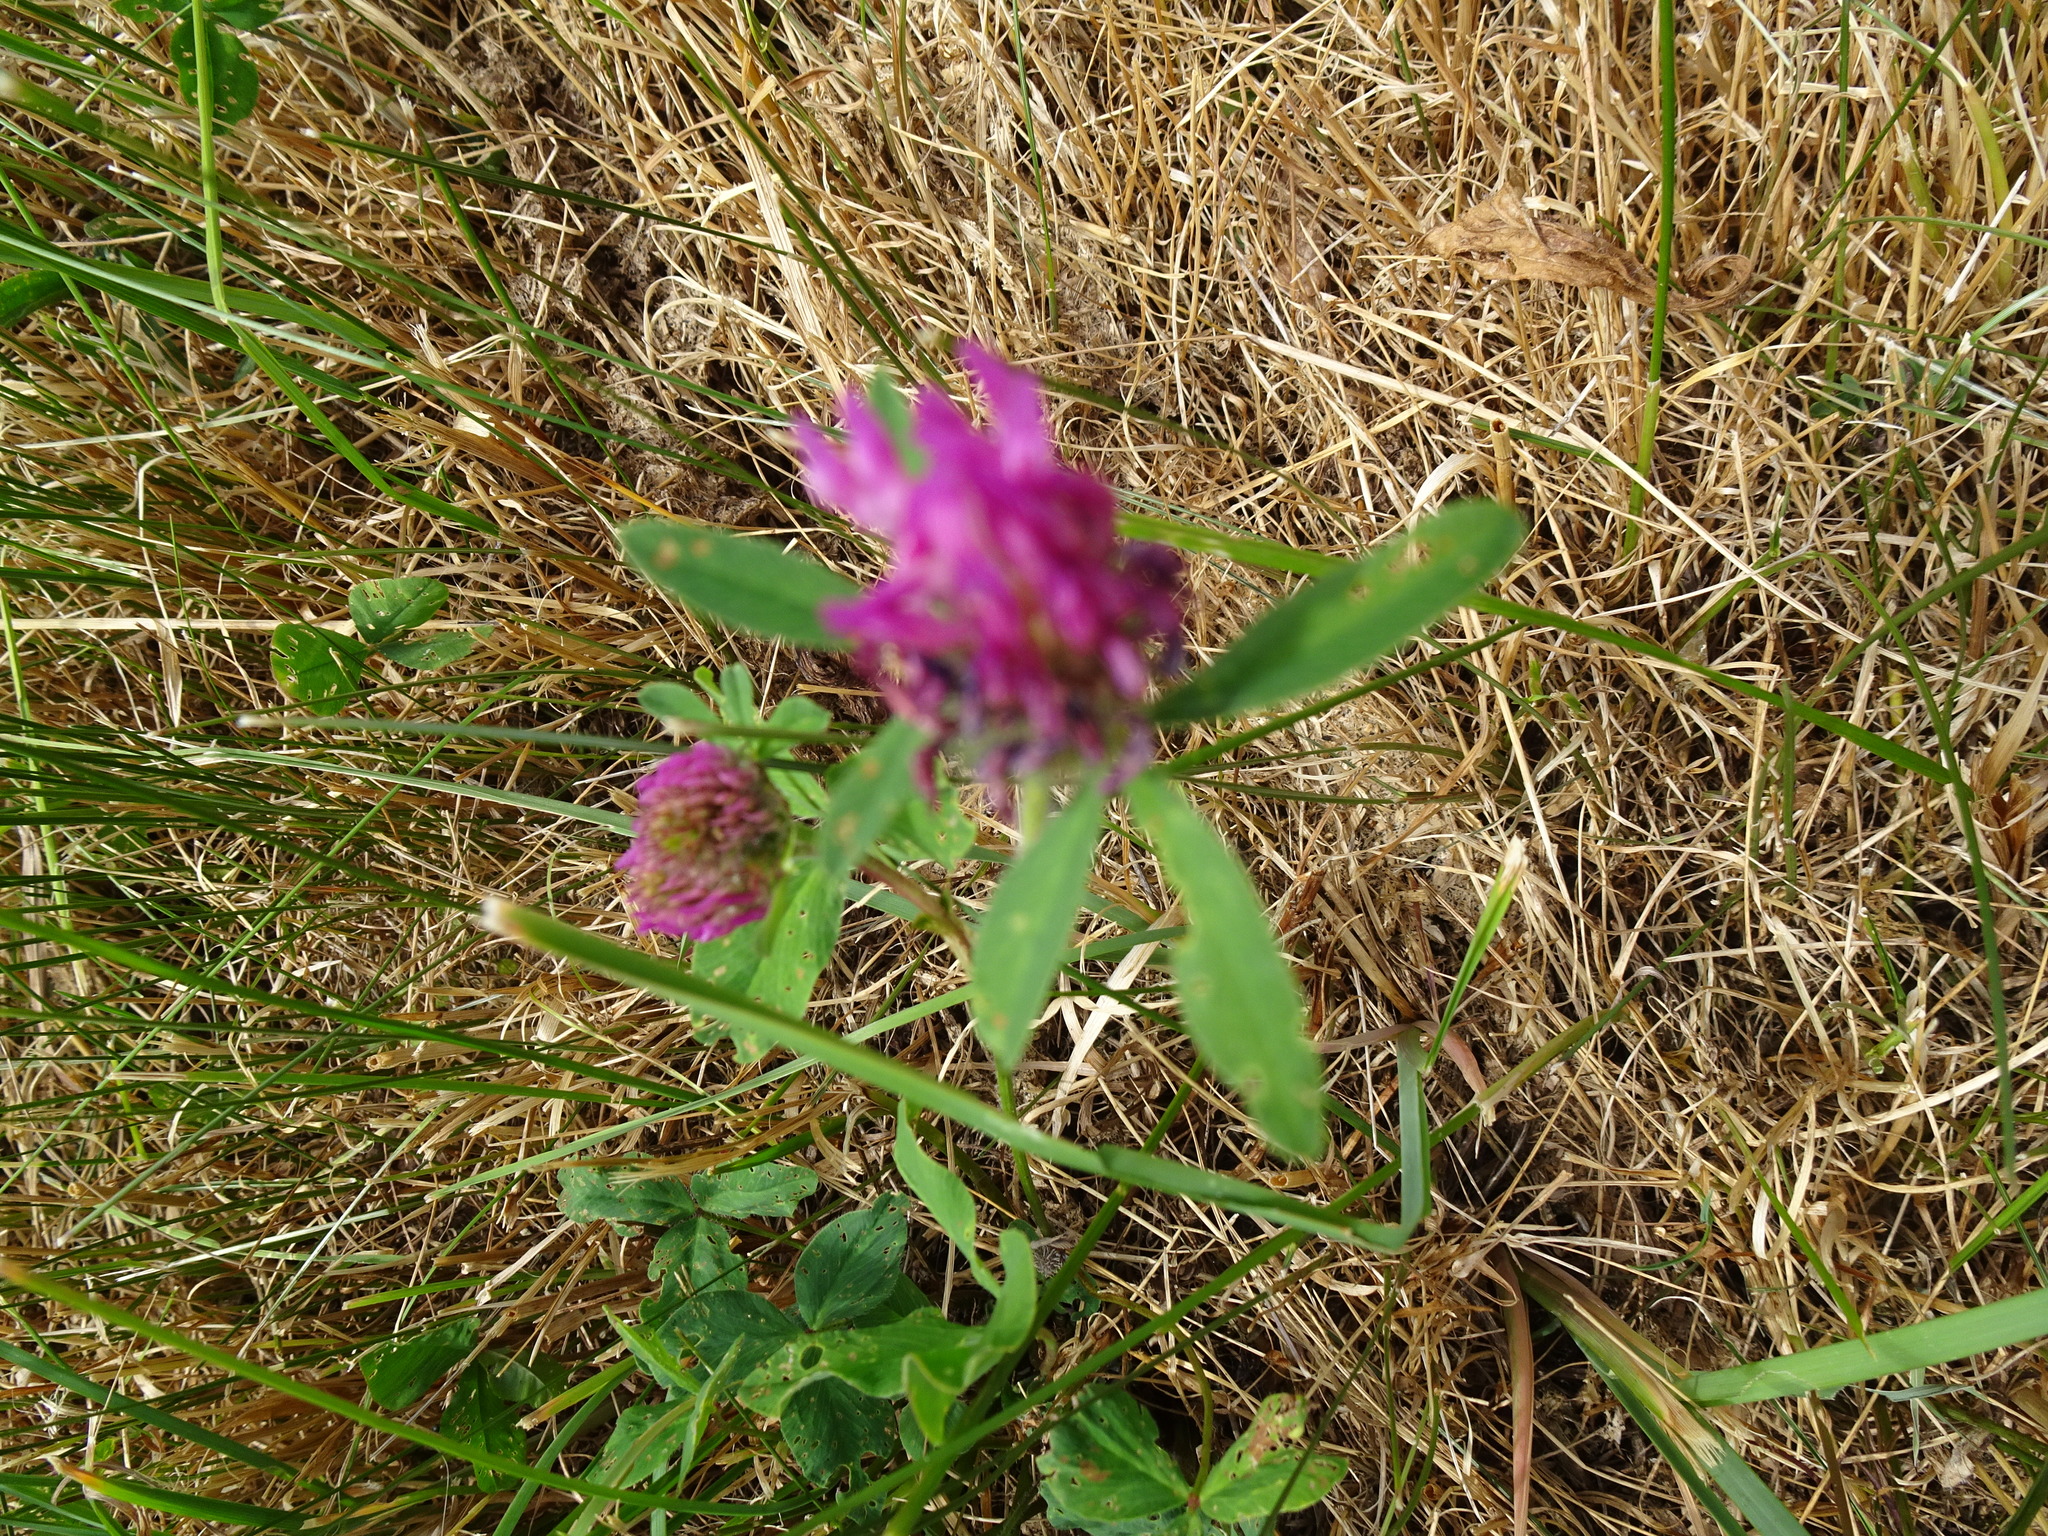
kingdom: Plantae
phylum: Tracheophyta
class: Magnoliopsida
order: Fabales
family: Fabaceae
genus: Trifolium
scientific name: Trifolium medium
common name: Zigzag clover
